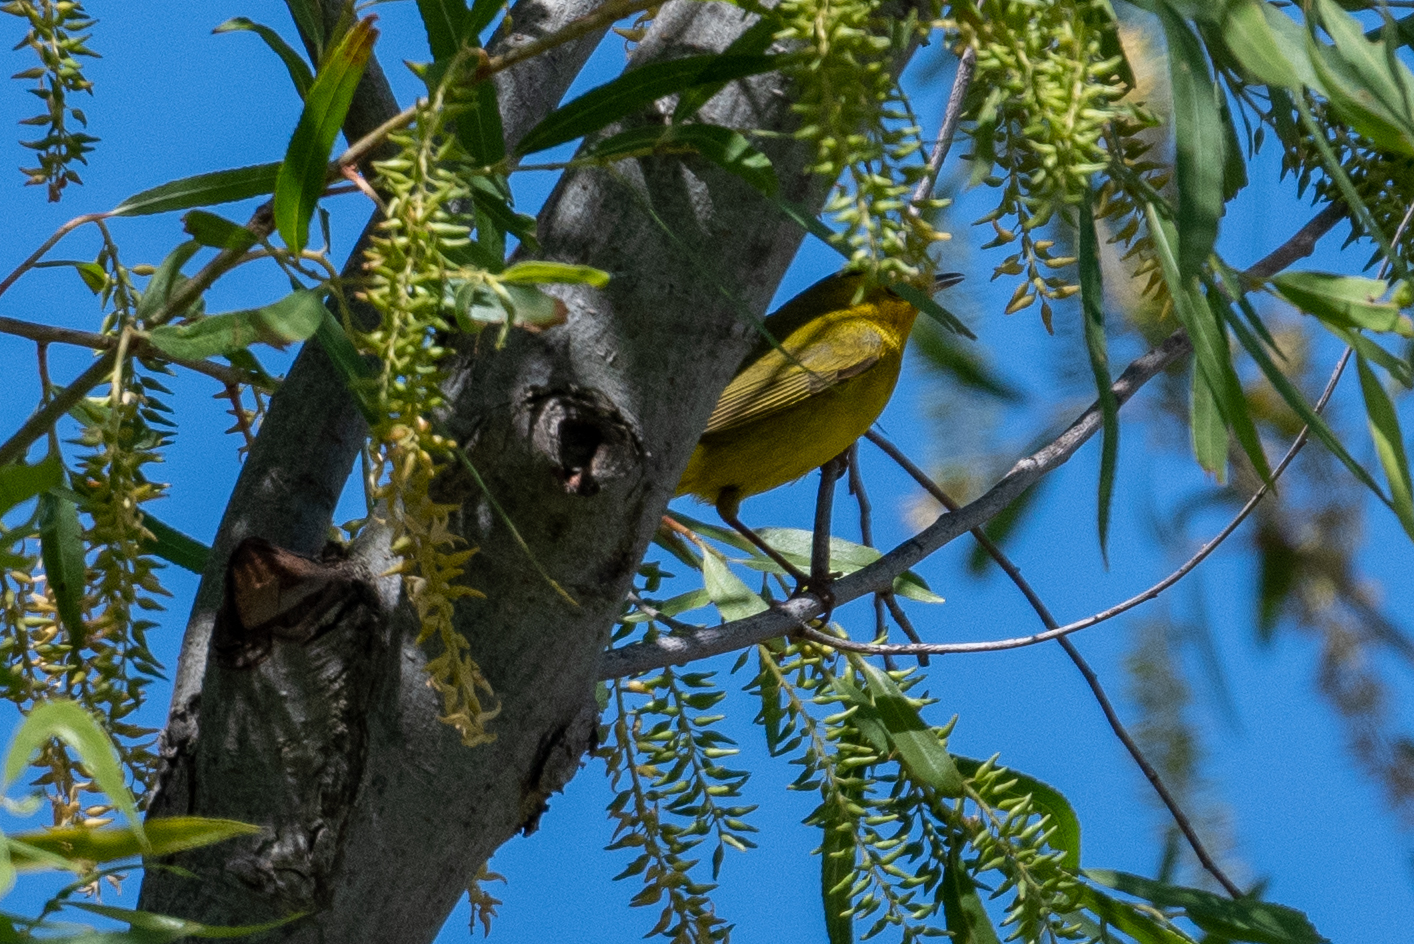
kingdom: Animalia
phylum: Chordata
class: Aves
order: Passeriformes
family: Parulidae
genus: Cardellina
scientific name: Cardellina pusilla
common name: Wilson's warbler
